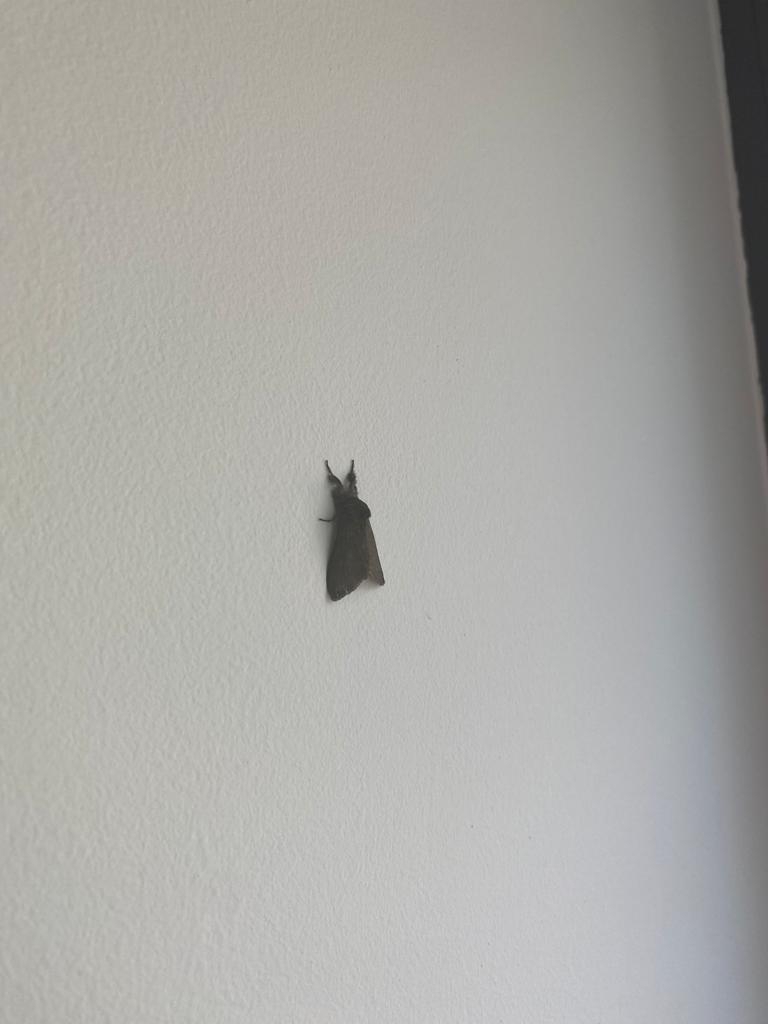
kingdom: Animalia
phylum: Arthropoda
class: Insecta
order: Lepidoptera
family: Erebidae
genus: Calliteara
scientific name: Calliteara pudibunda
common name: Pale tussock
